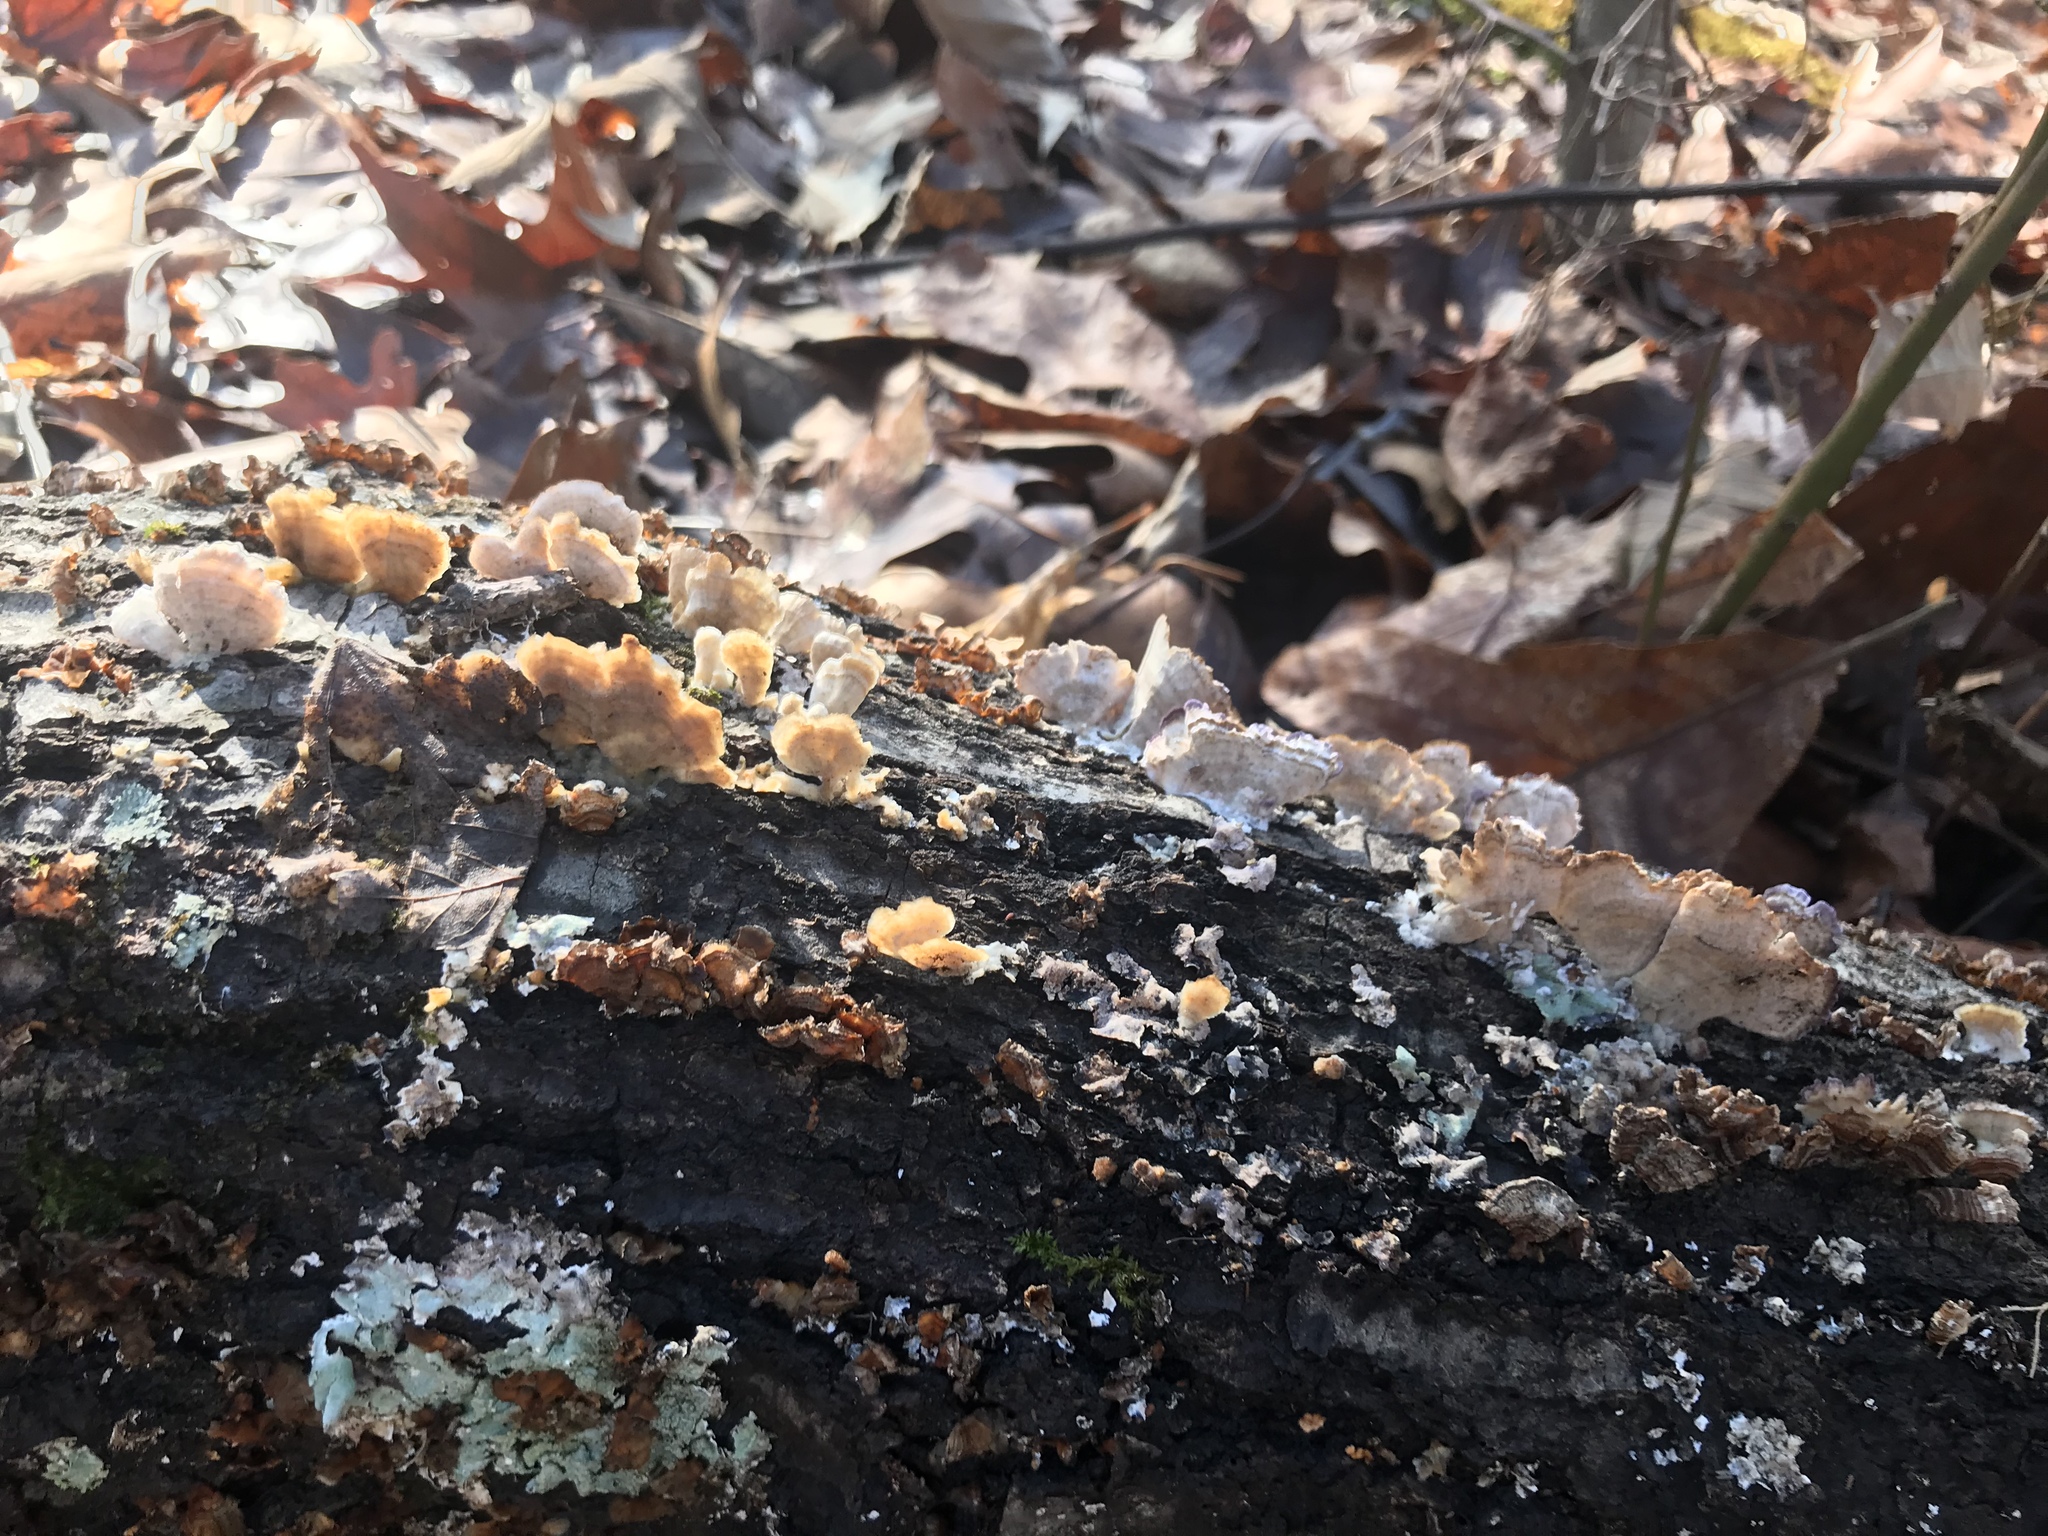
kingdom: Fungi
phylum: Basidiomycota
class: Agaricomycetes
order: Russulales
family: Stereaceae
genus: Stereum
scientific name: Stereum complicatum
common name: Crowded parchment
